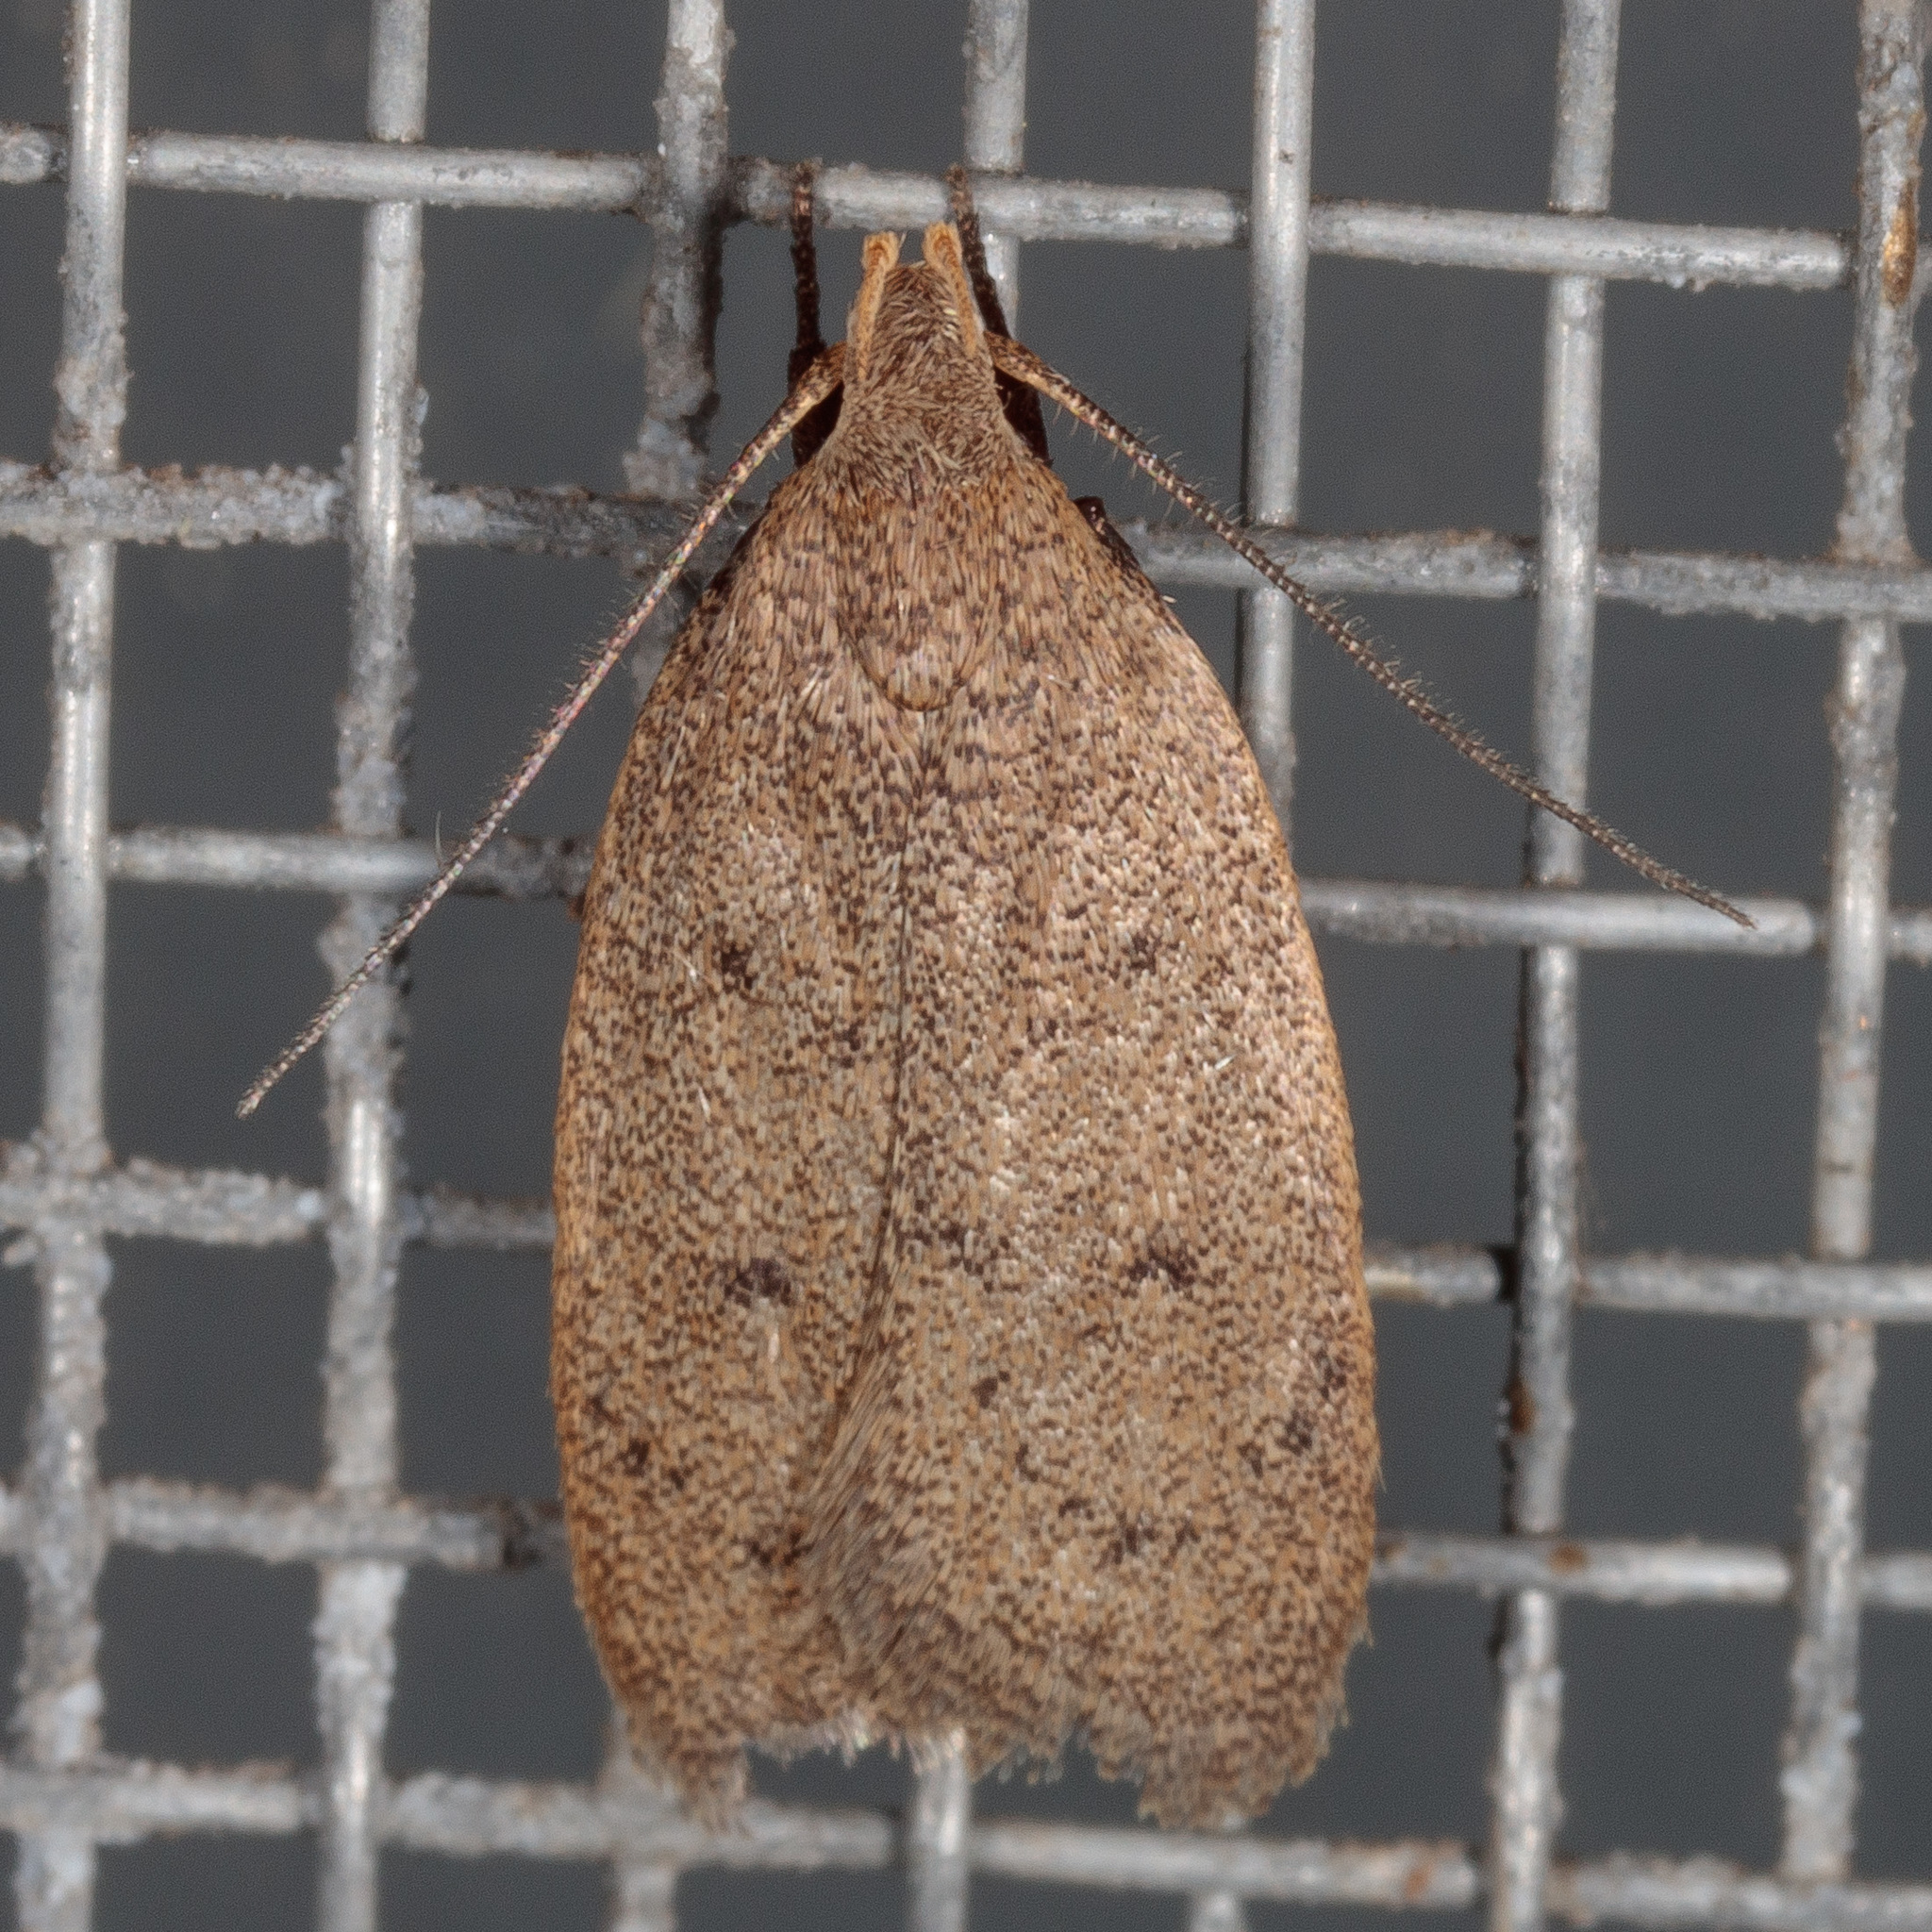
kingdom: Animalia
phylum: Arthropoda
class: Insecta
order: Lepidoptera
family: Oecophoridae
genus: Inga
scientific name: Inga obscuromaculella
